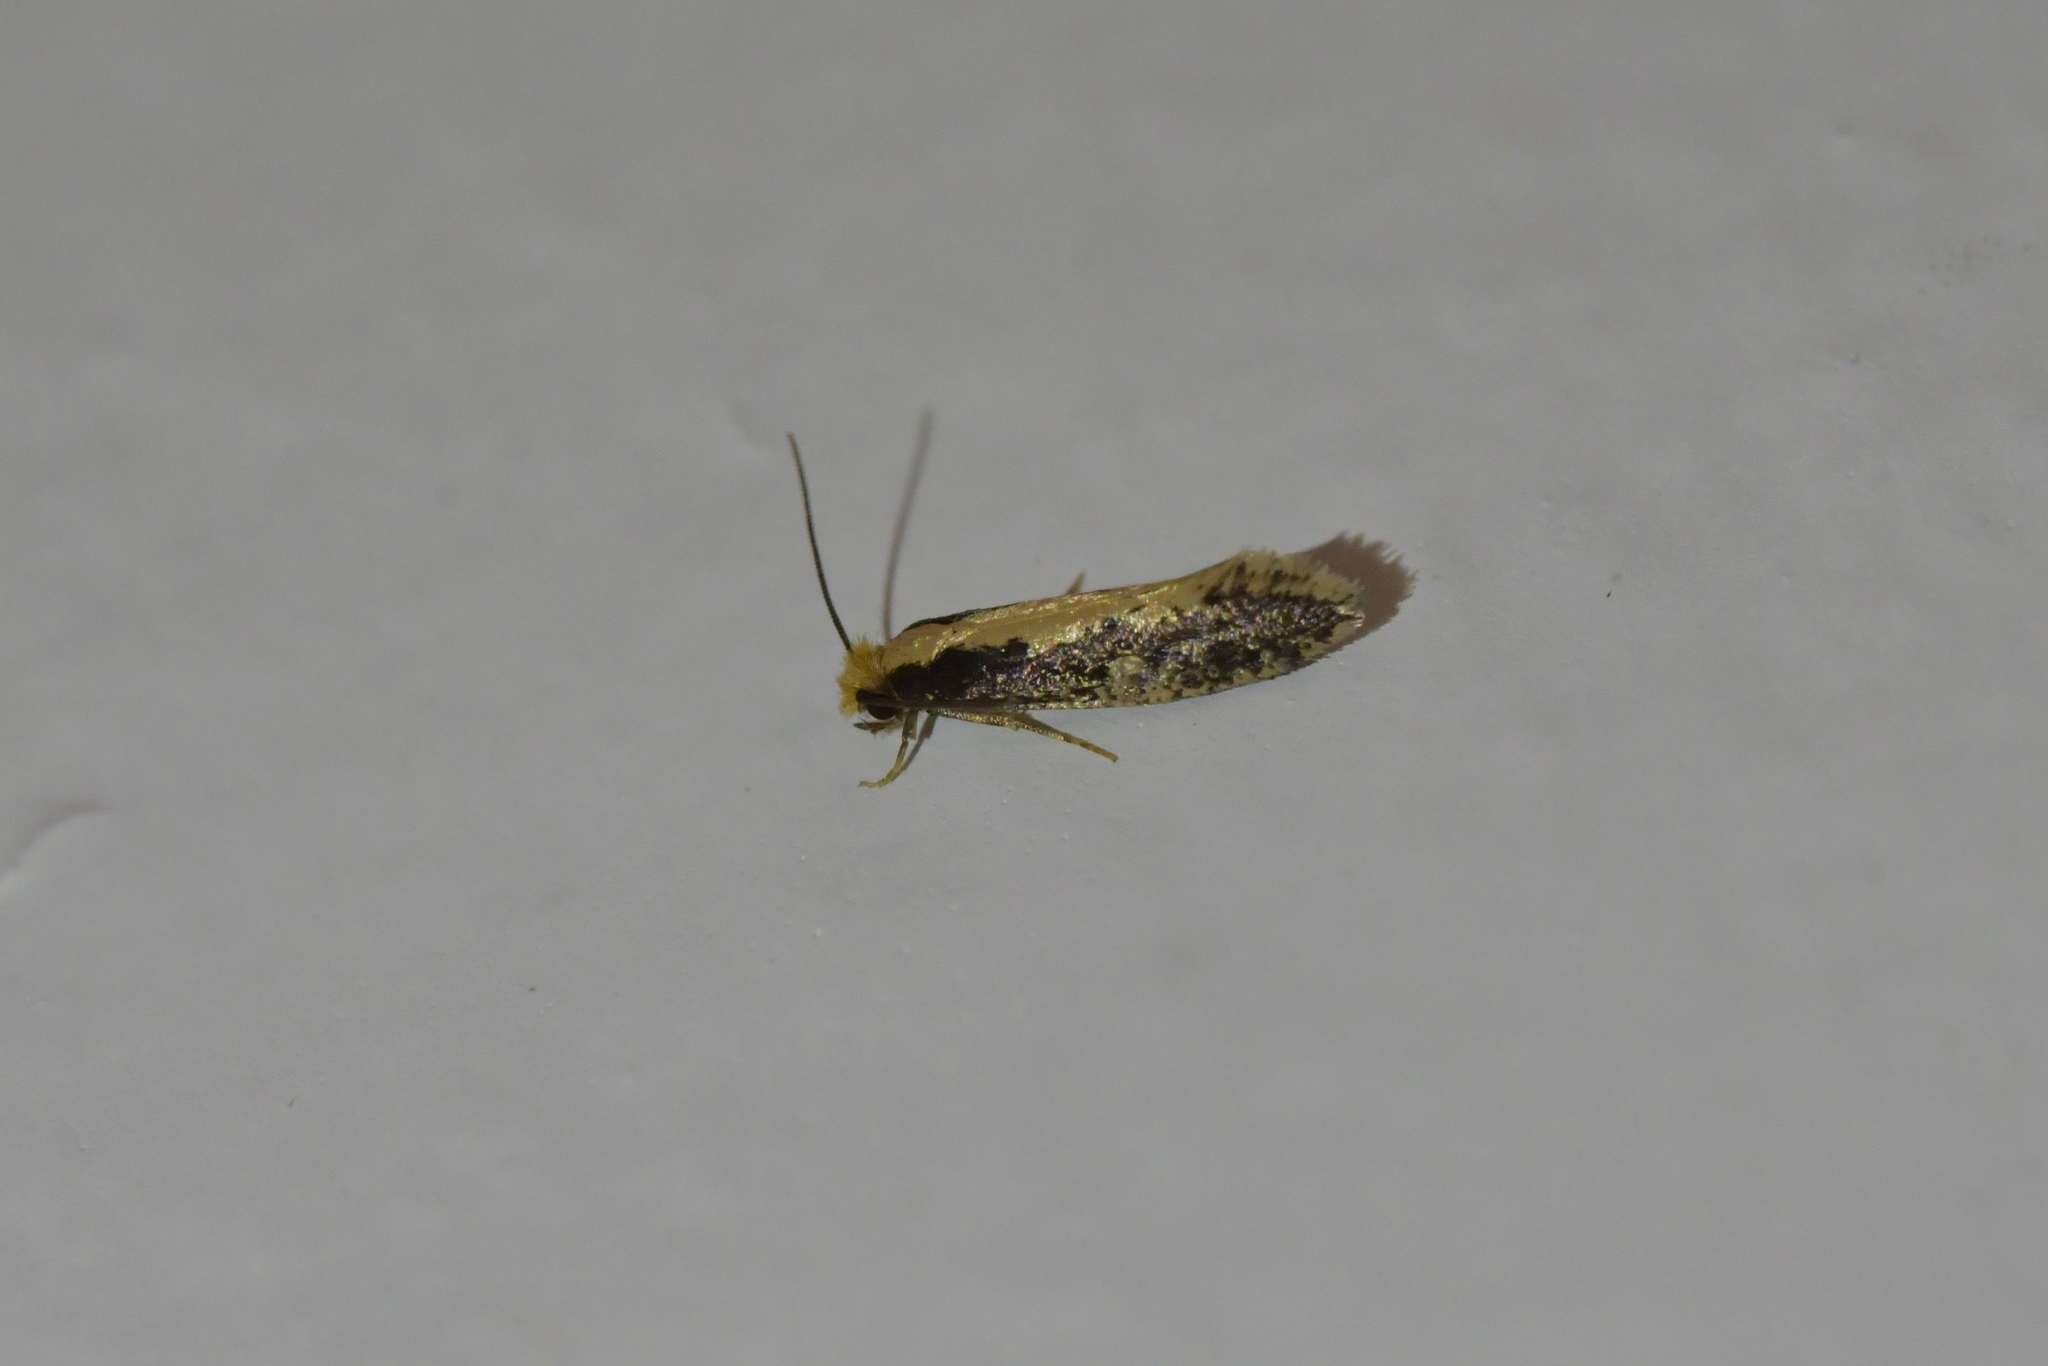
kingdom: Animalia
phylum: Arthropoda
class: Insecta
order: Lepidoptera
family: Tineidae
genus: Monopis
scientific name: Monopis crocicapitella
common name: Moth
